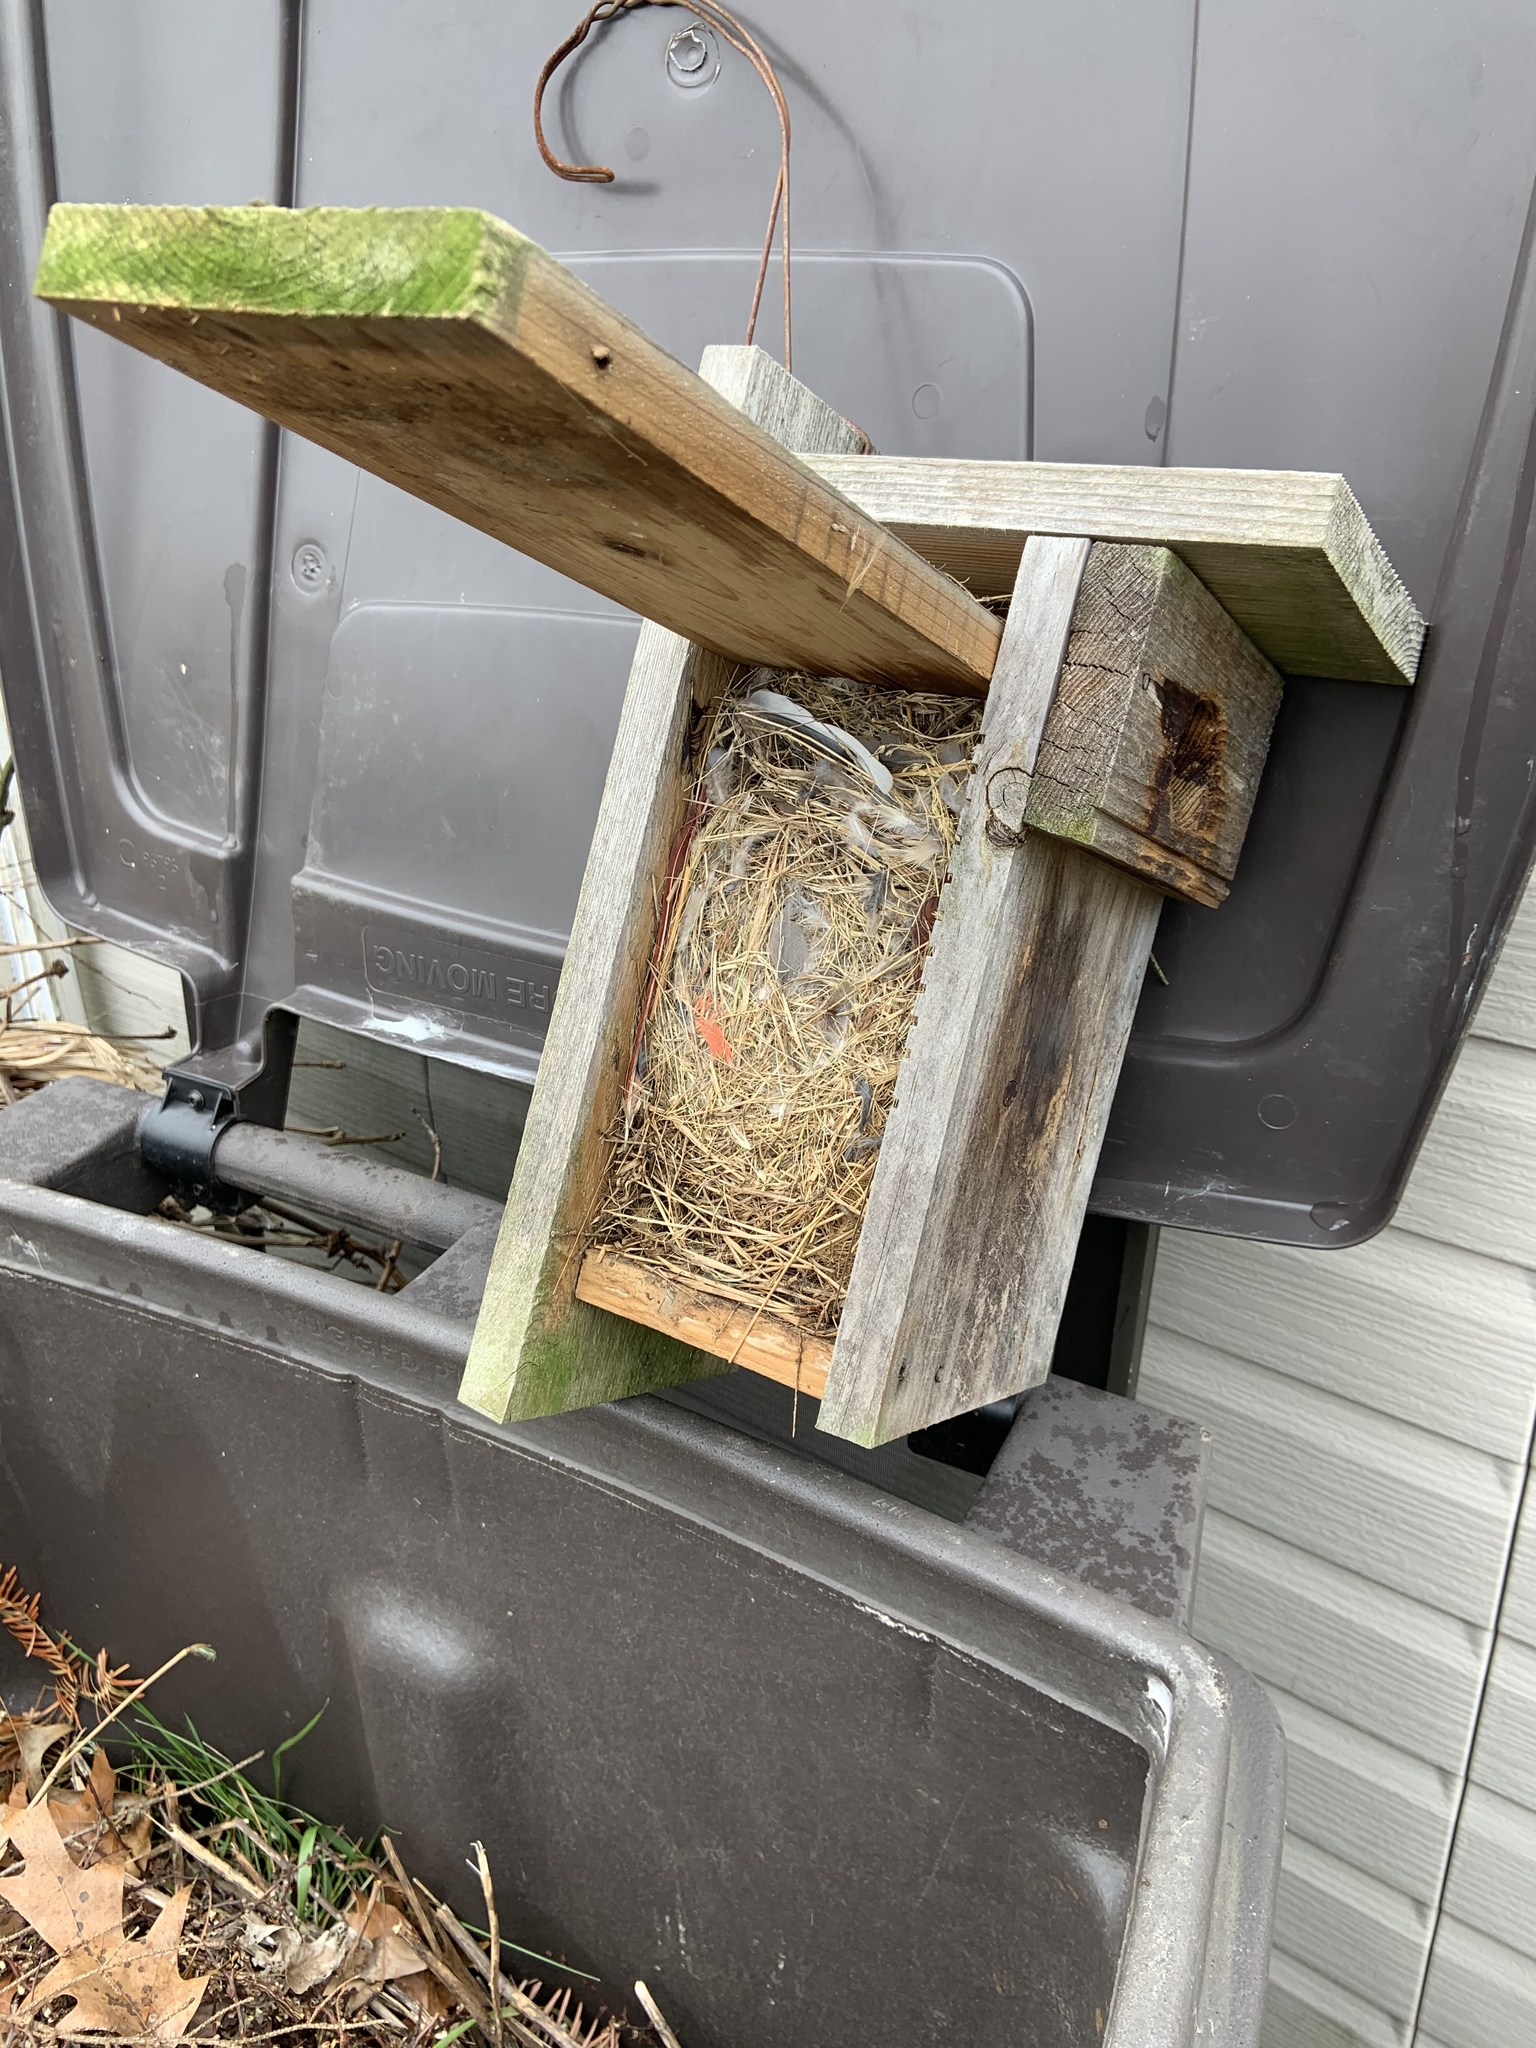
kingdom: Animalia
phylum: Chordata
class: Aves
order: Passeriformes
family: Passeridae
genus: Passer
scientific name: Passer domesticus
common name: House sparrow
